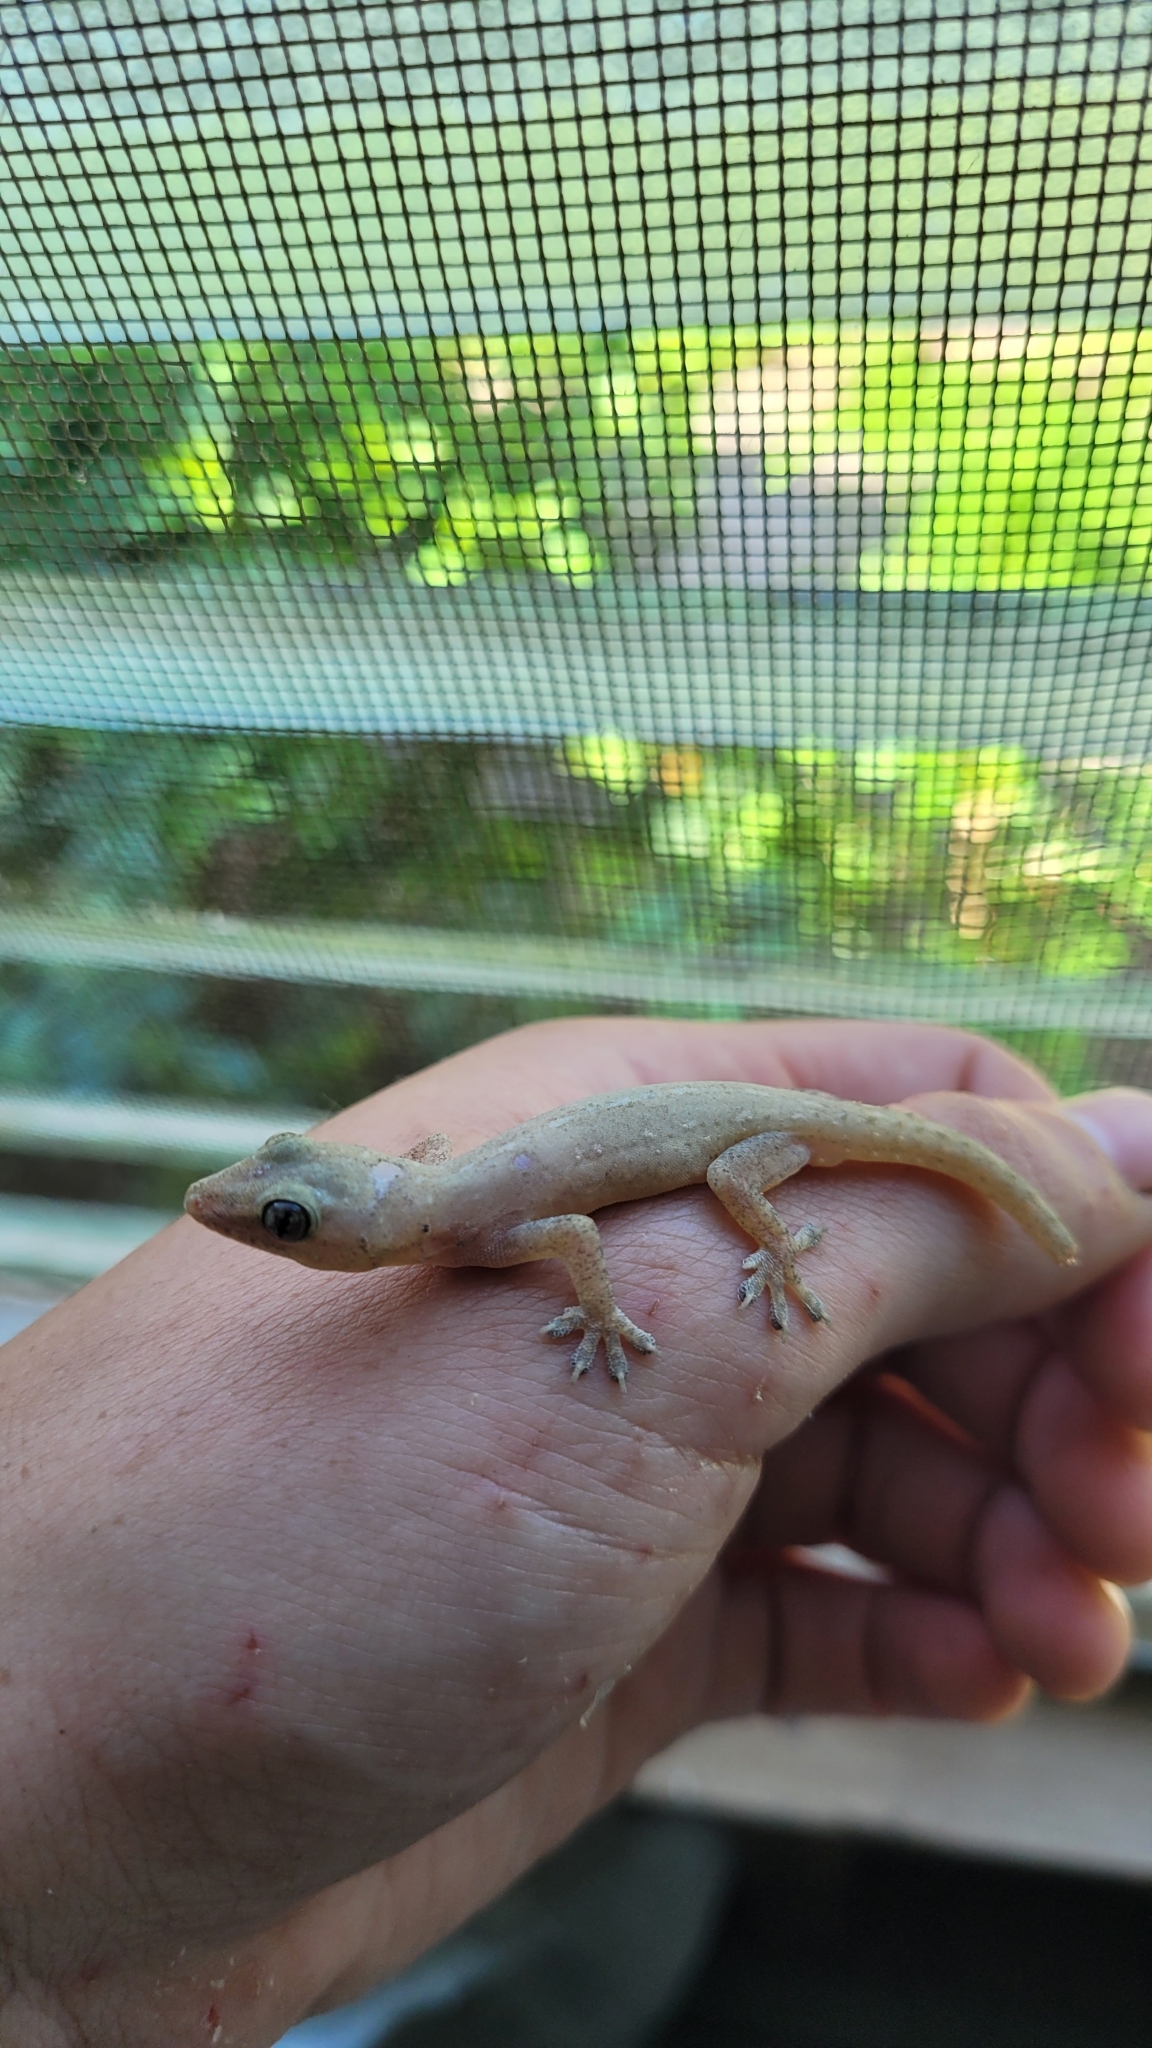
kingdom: Animalia
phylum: Chordata
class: Squamata
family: Gekkonidae
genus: Hemidactylus
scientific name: Hemidactylus frenatus
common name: Common house gecko
